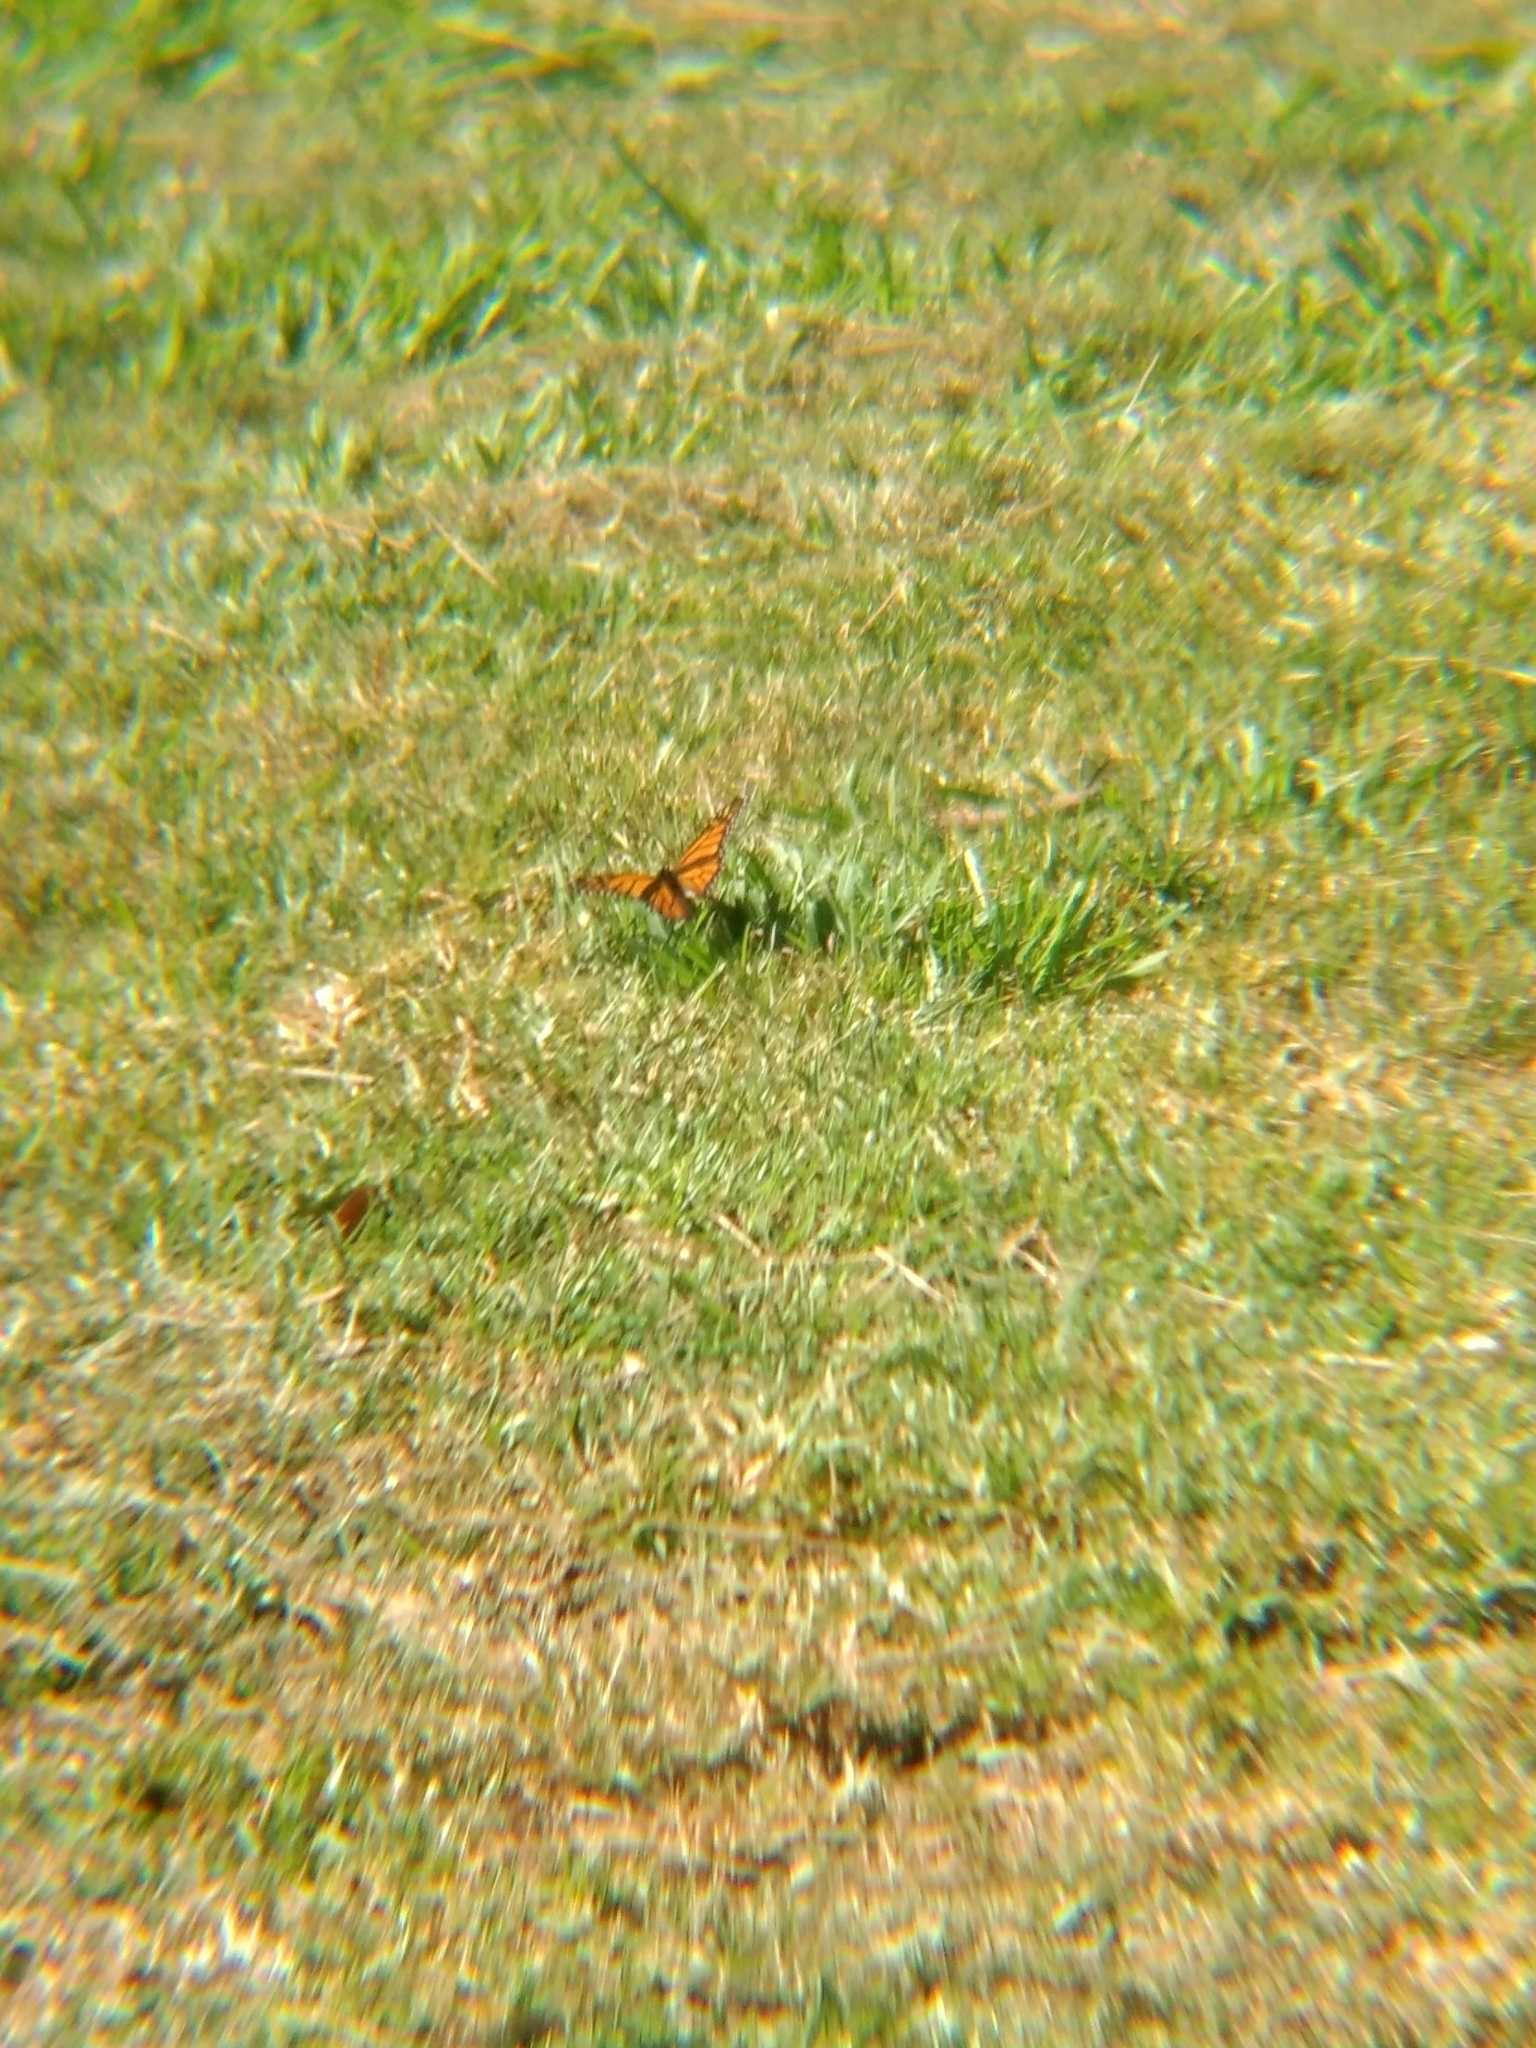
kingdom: Animalia
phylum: Arthropoda
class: Insecta
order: Lepidoptera
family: Nymphalidae
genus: Danaus
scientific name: Danaus plexippus
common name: Monarch
